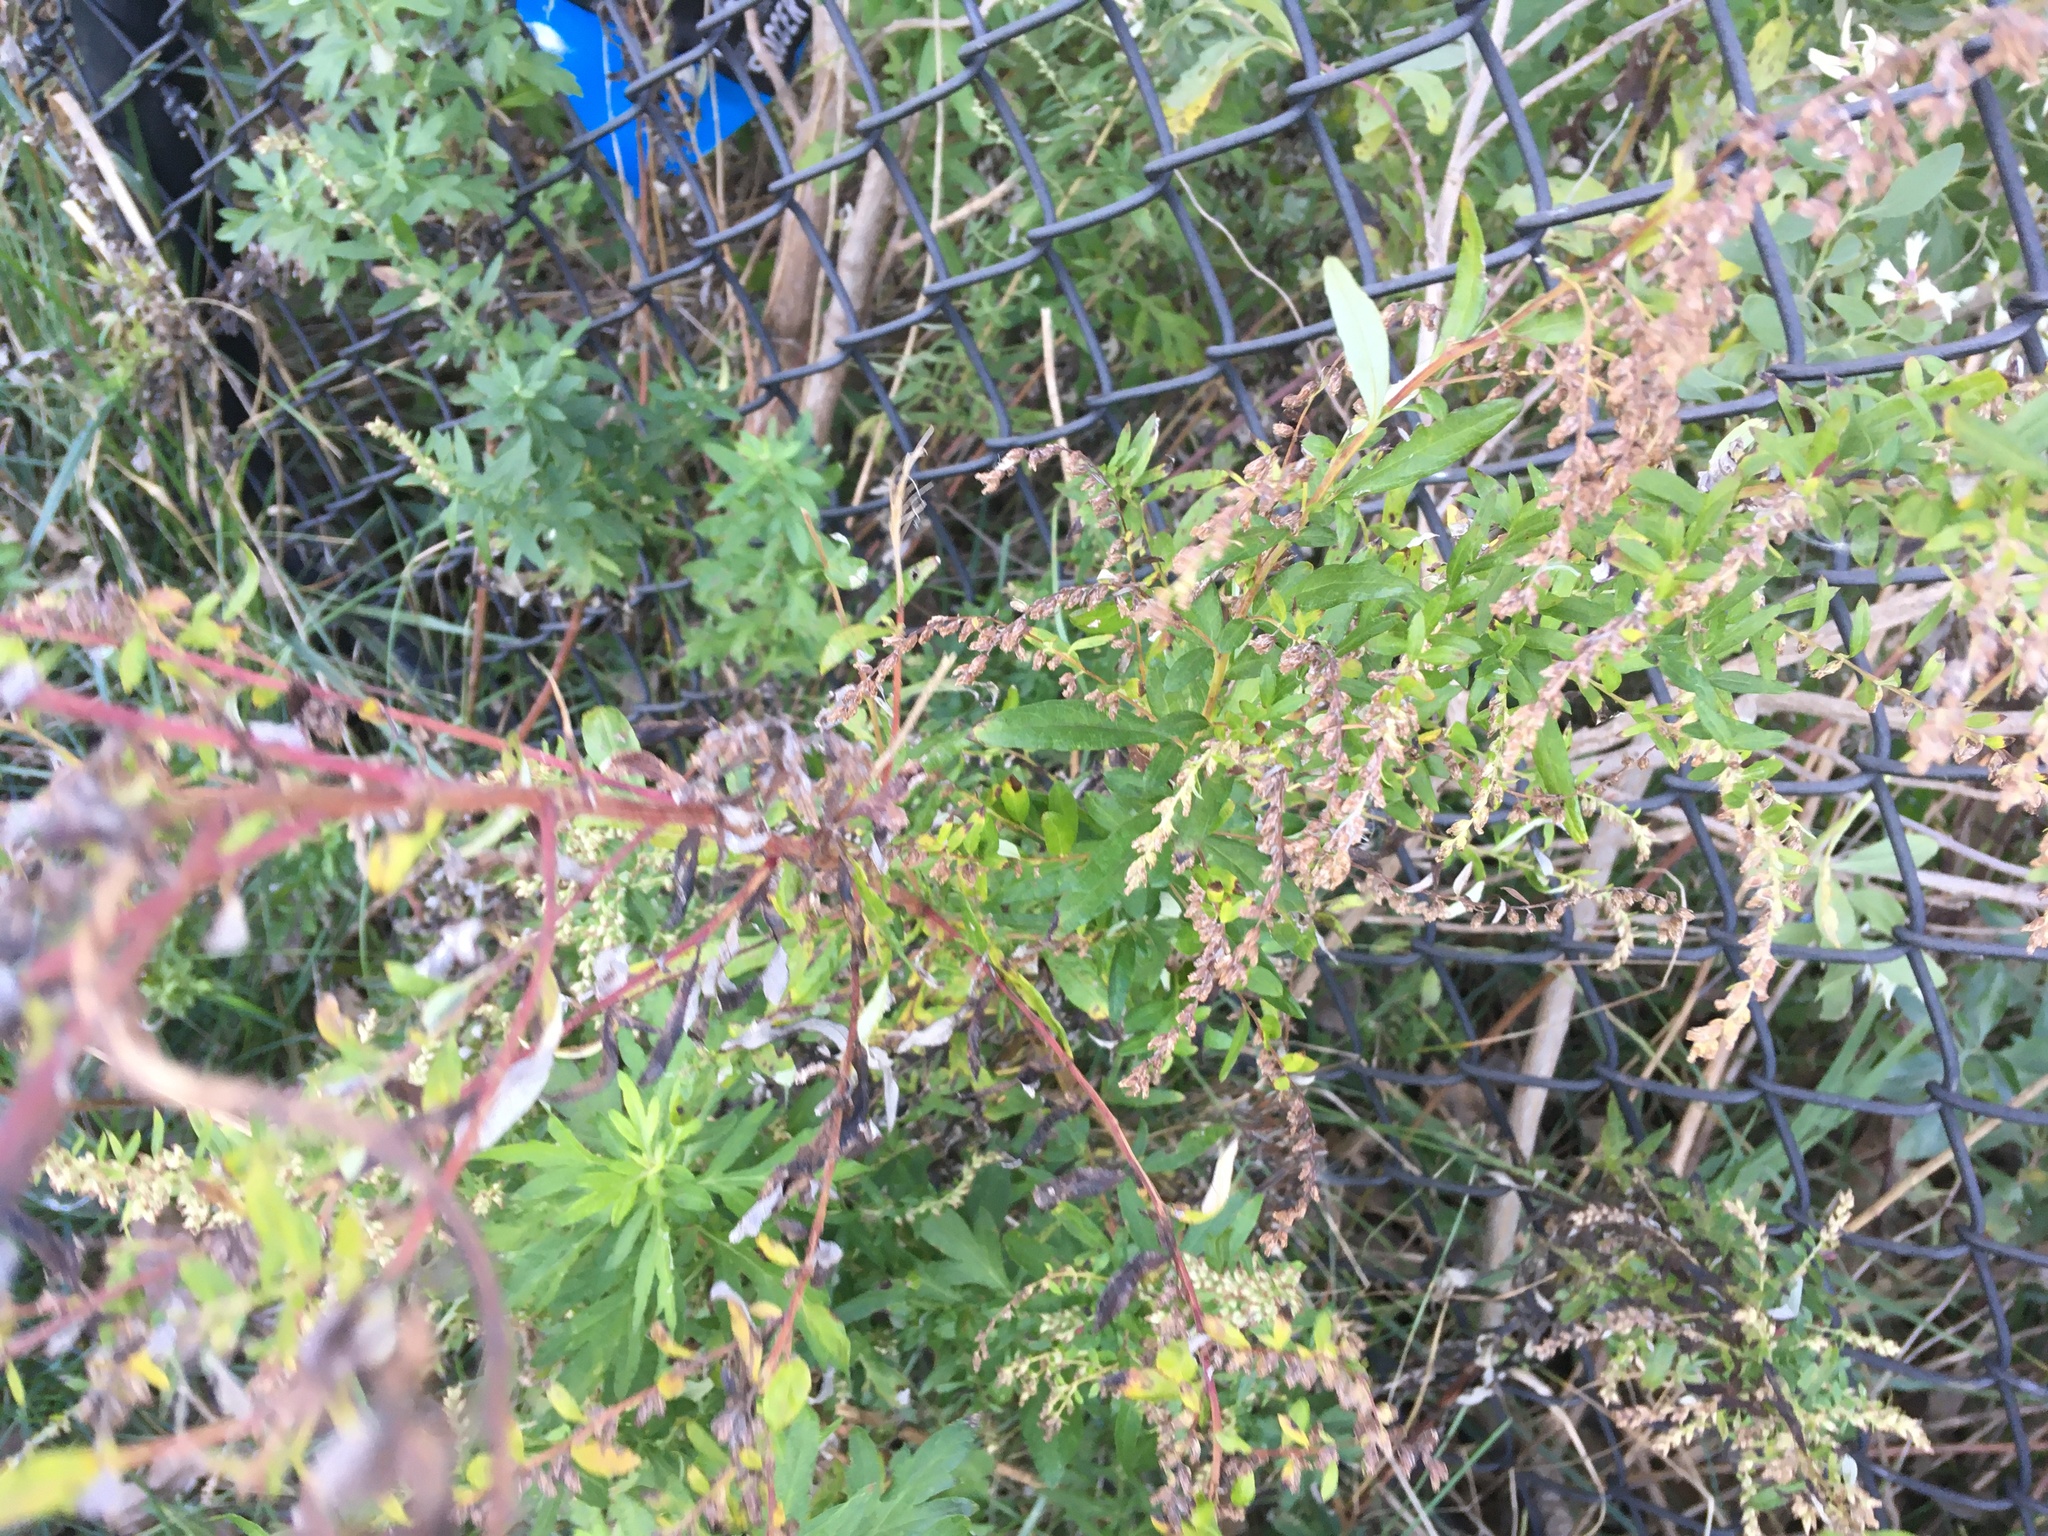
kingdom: Plantae
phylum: Tracheophyta
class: Magnoliopsida
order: Asterales
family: Asteraceae
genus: Artemisia
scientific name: Artemisia vulgaris
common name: Mugwort
